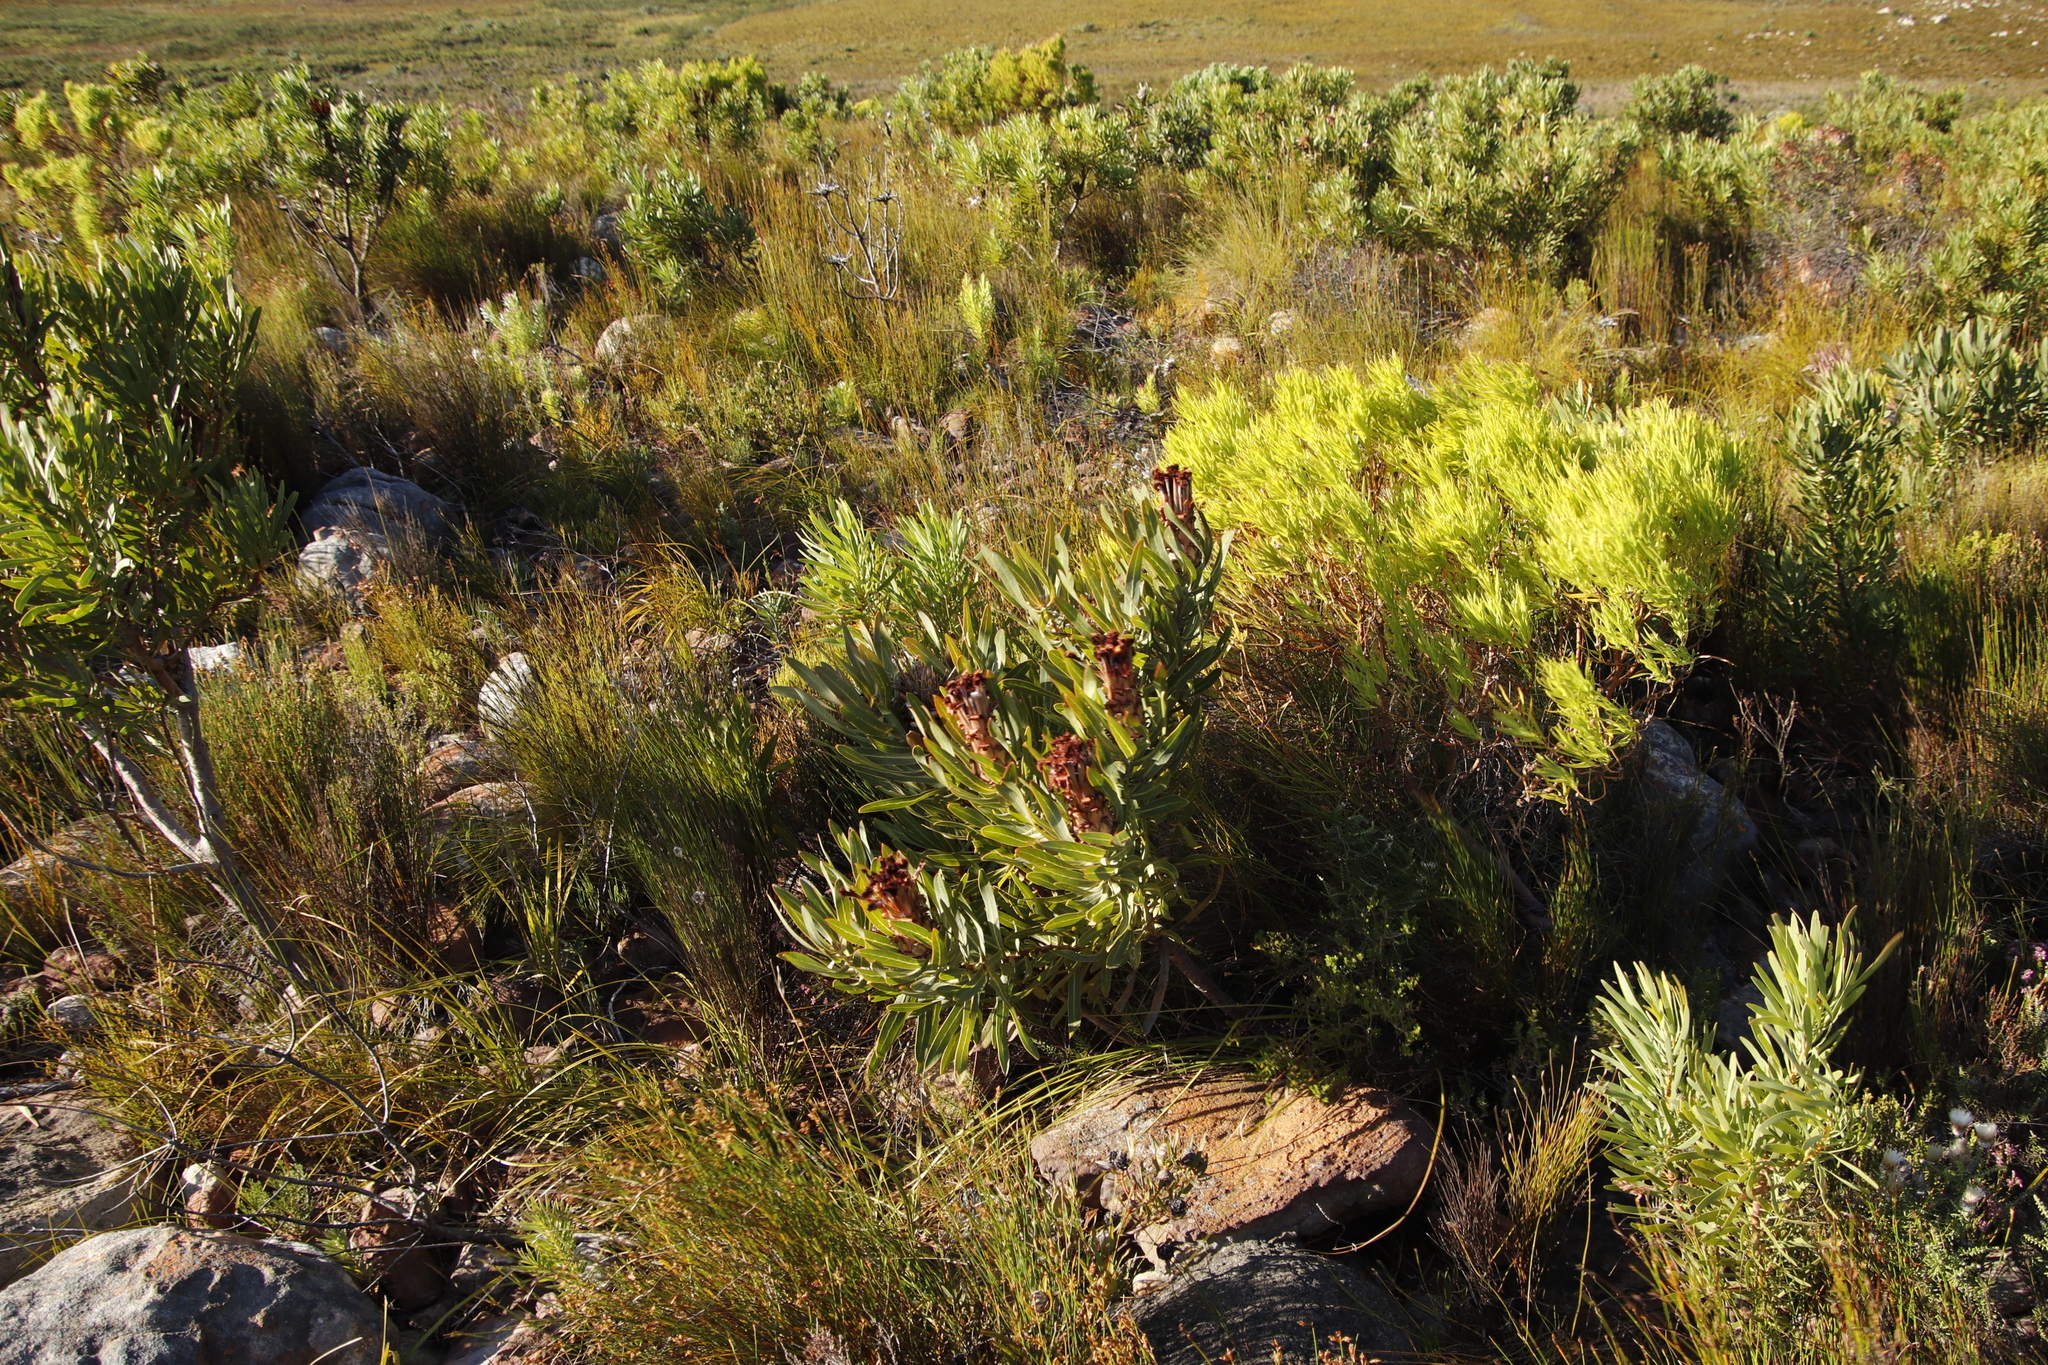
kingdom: Plantae
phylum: Tracheophyta
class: Magnoliopsida
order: Proteales
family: Proteaceae
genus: Protea
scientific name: Protea laurifolia
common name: Grey-leaf sugarbsh
